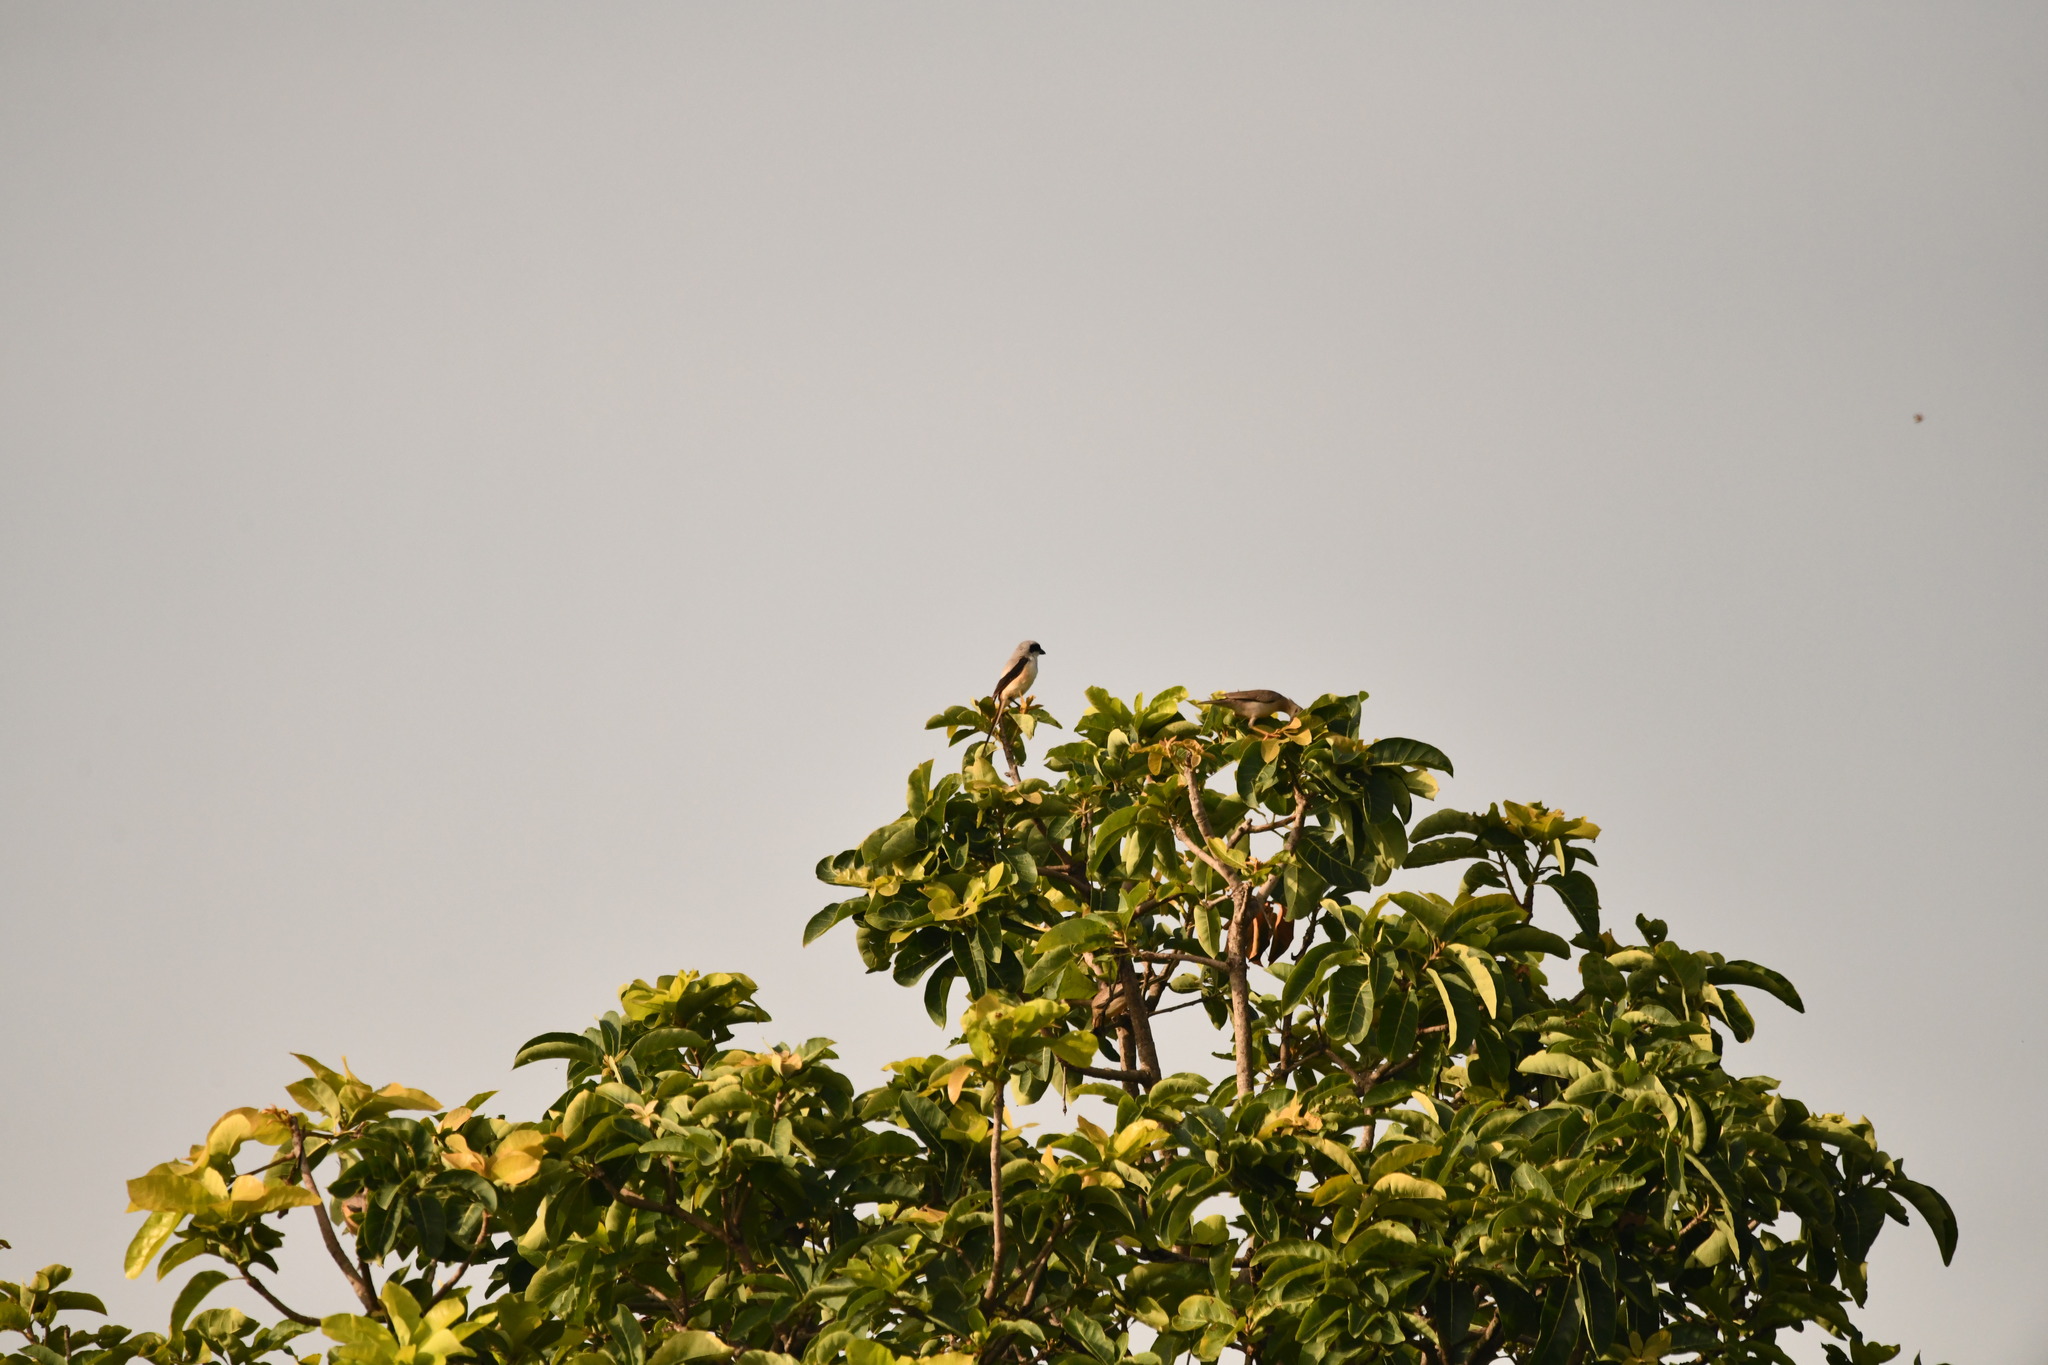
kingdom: Animalia
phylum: Chordata
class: Aves
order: Passeriformes
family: Laniidae
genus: Lanius
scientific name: Lanius schach
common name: Long-tailed shrike
